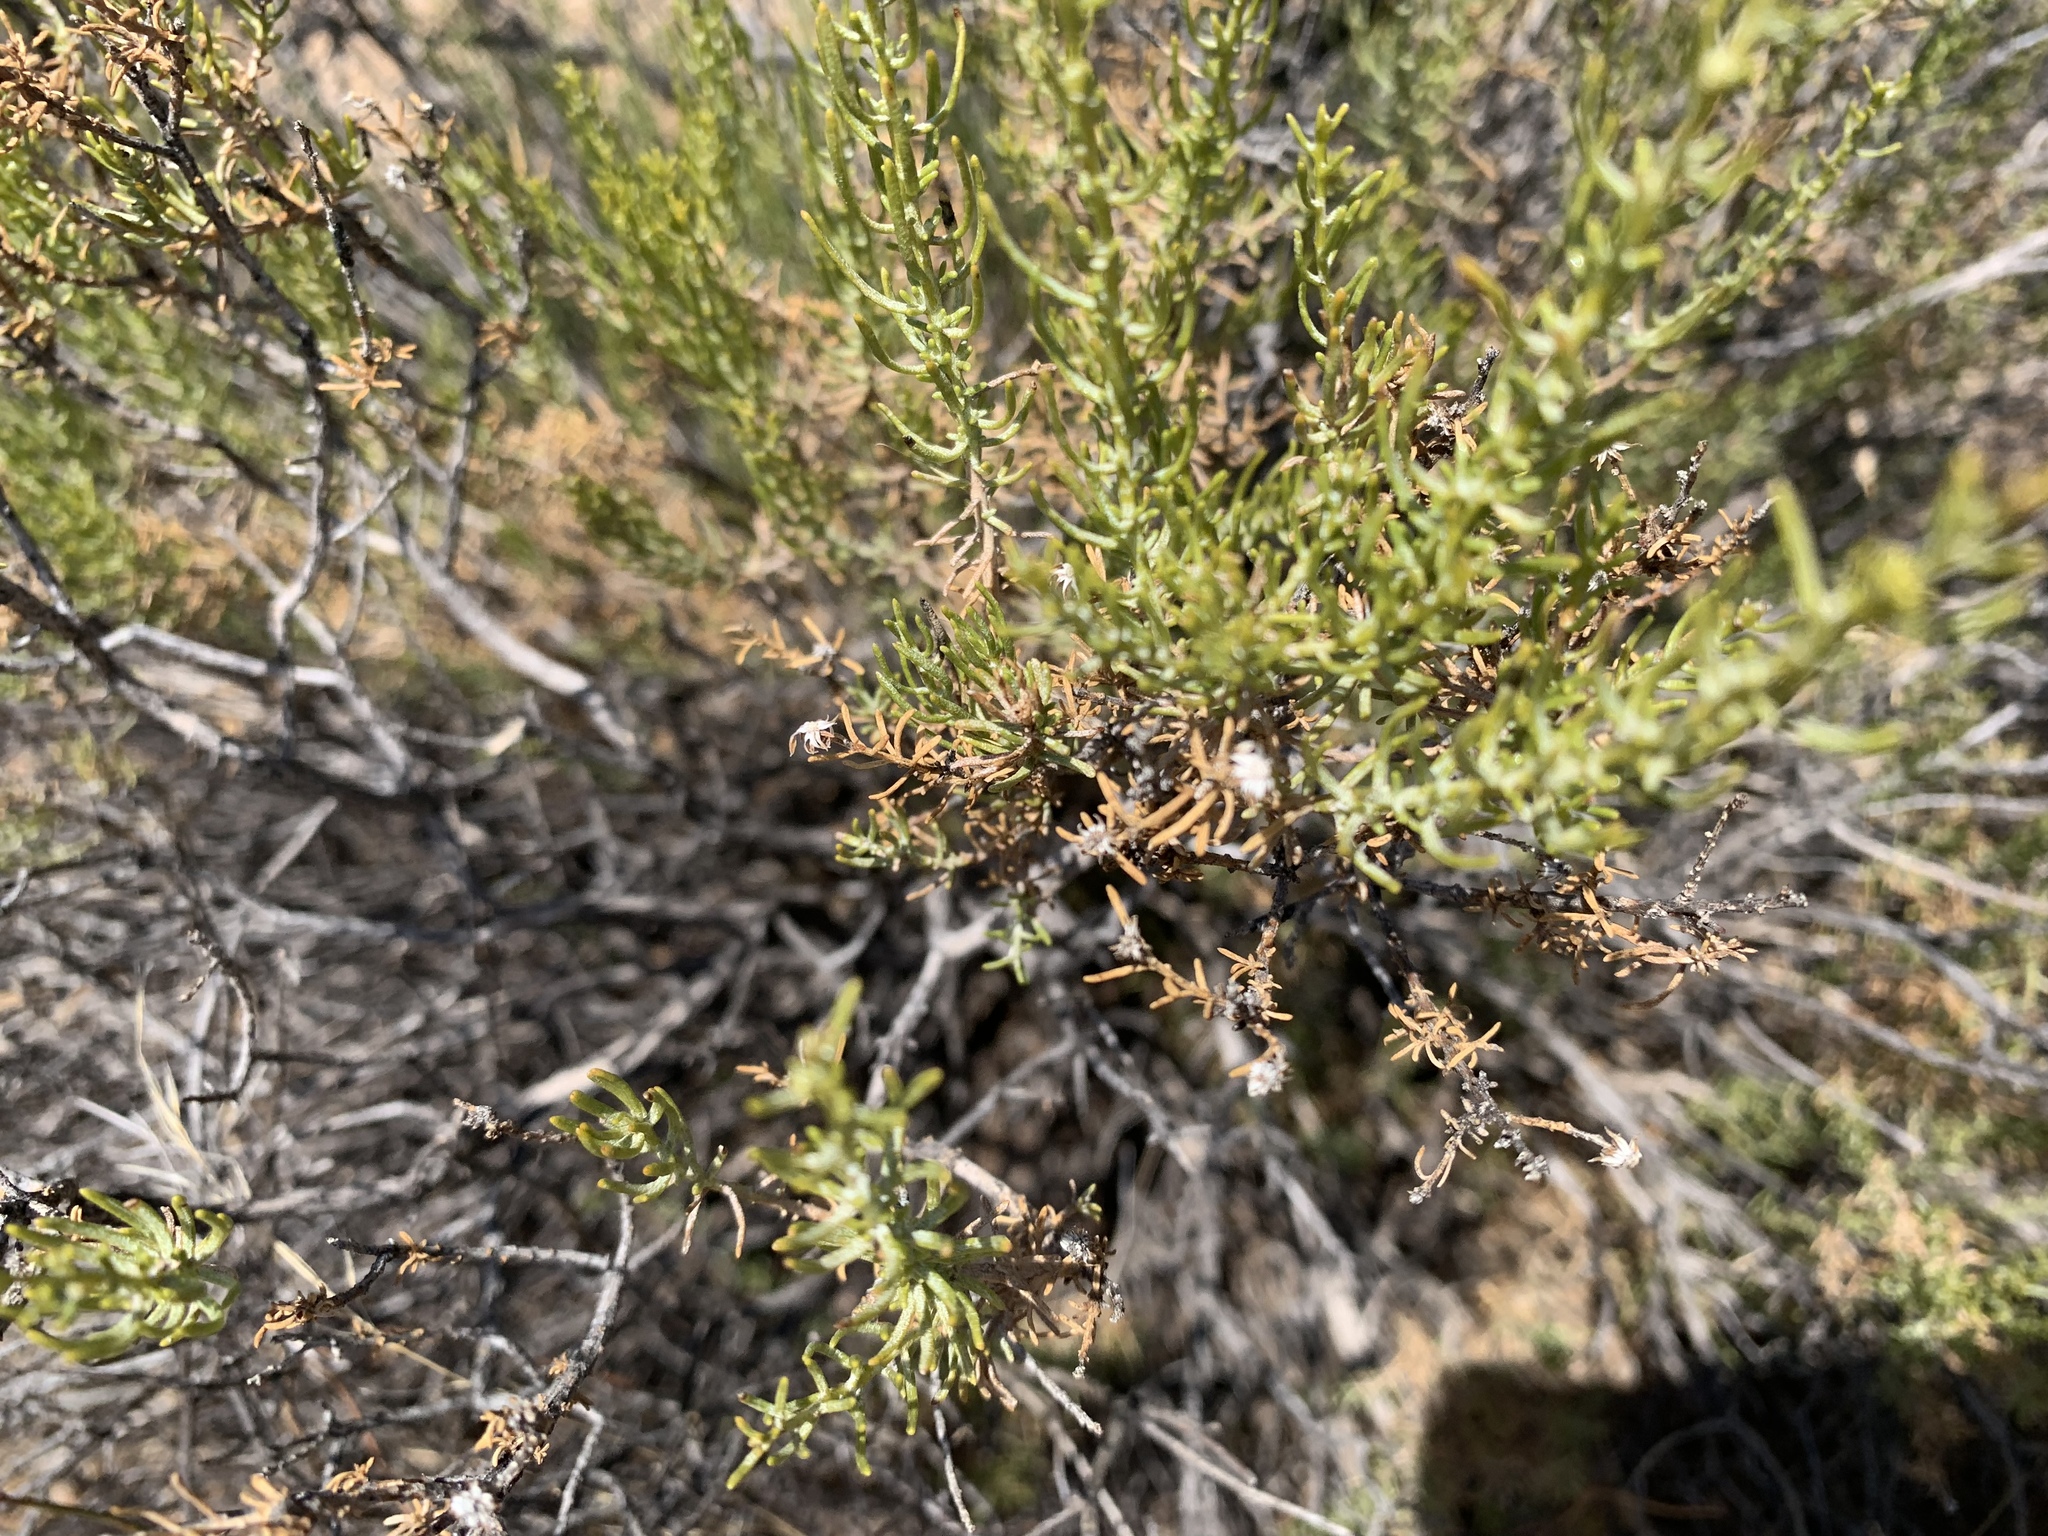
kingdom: Plantae
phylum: Tracheophyta
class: Magnoliopsida
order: Asterales
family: Asteraceae
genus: Ericameria
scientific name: Ericameria laricifolia
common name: Turpentine-bush
